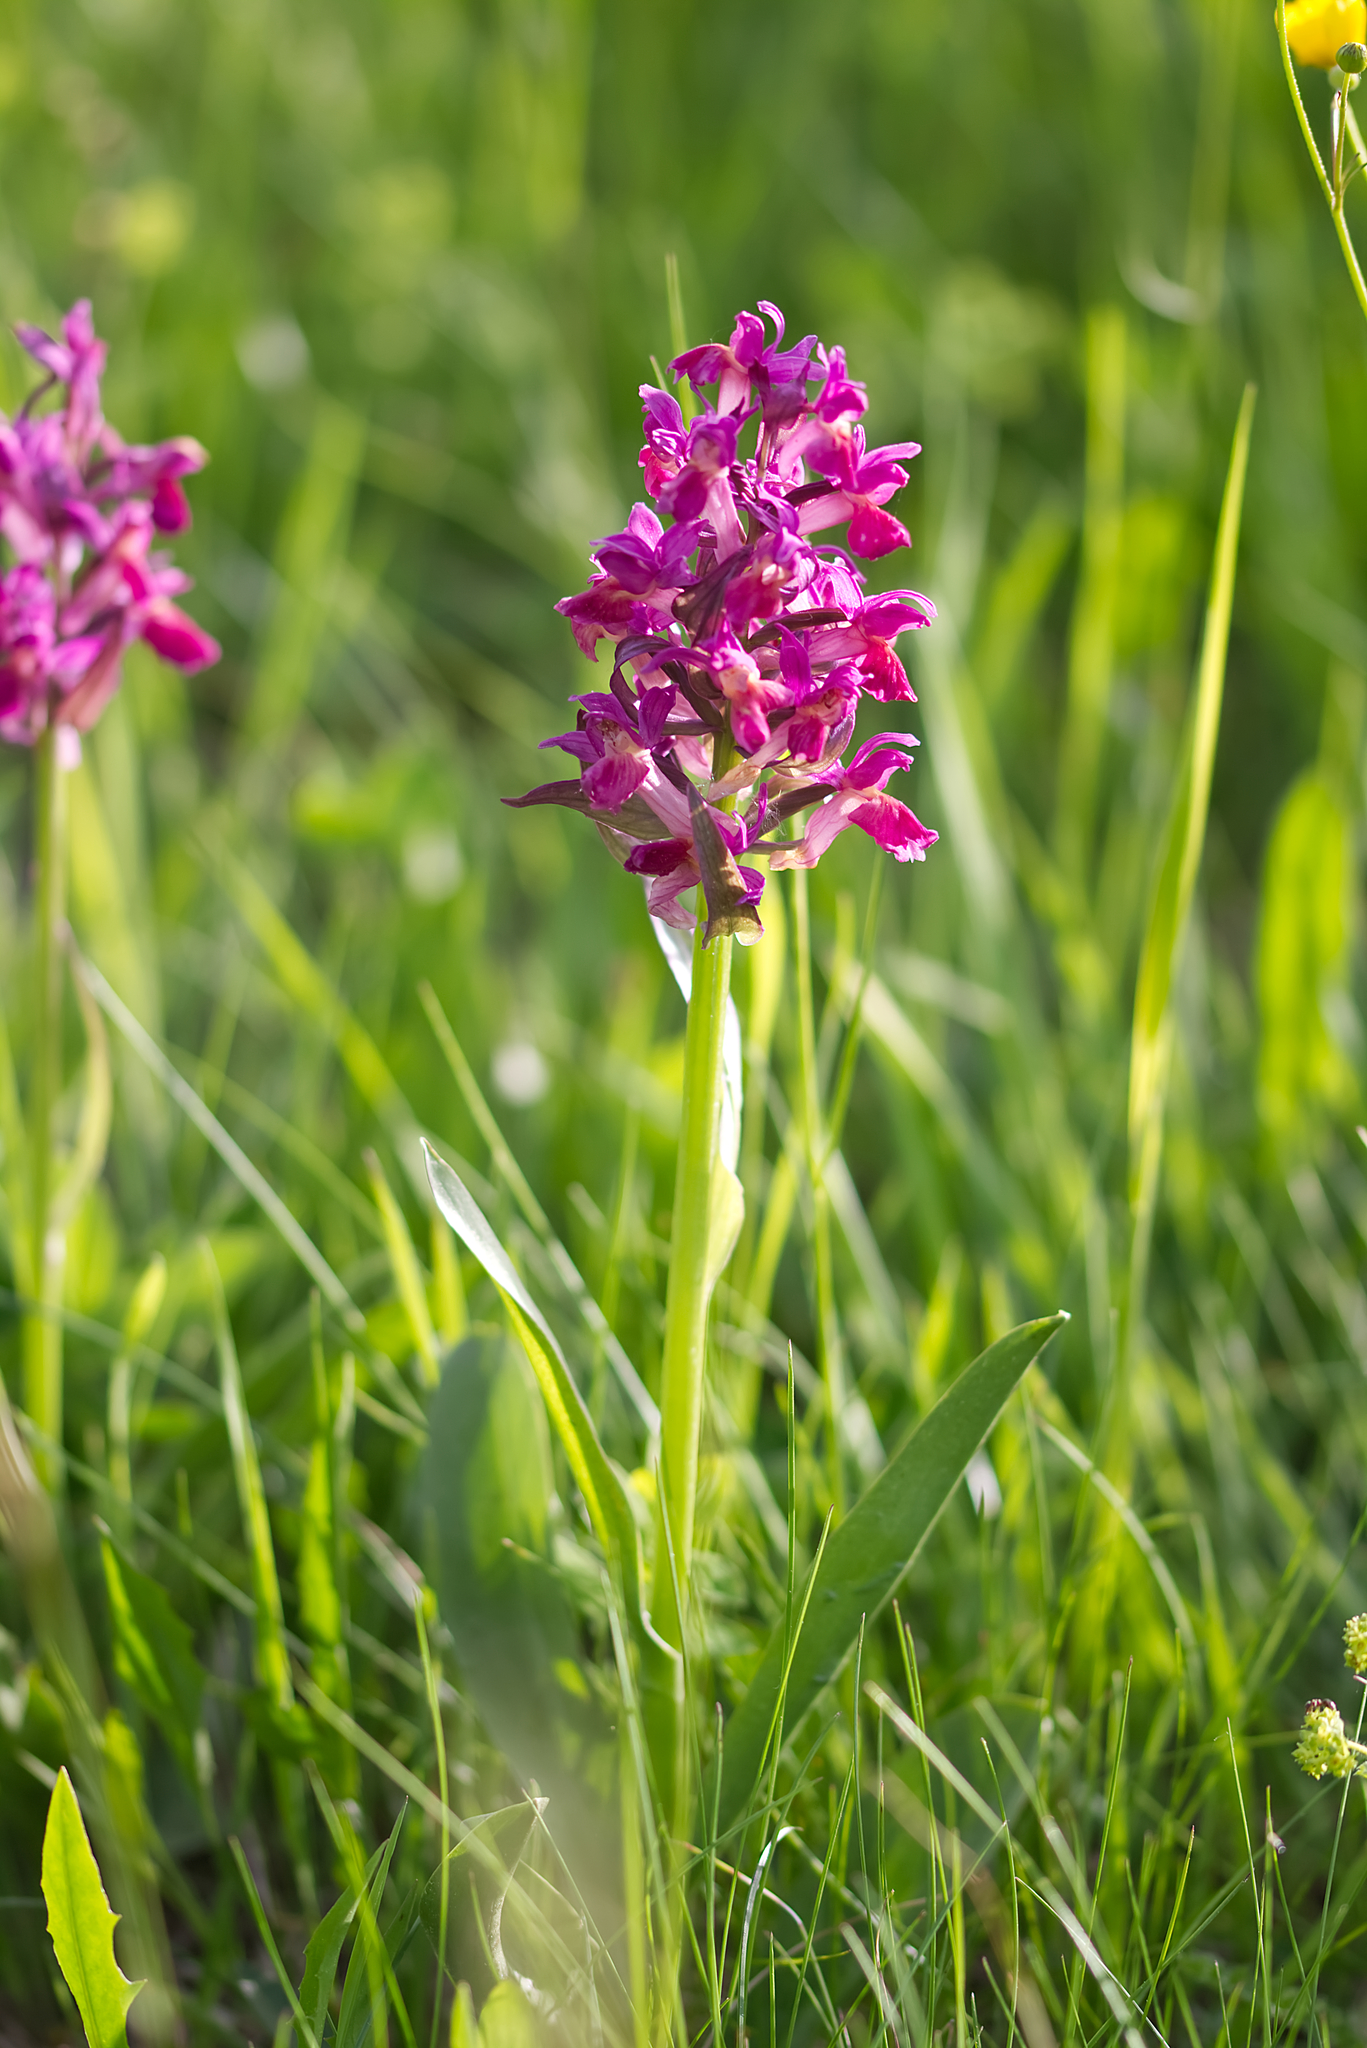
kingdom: Plantae
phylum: Tracheophyta
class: Liliopsida
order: Asparagales
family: Orchidaceae
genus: Dactylorhiza
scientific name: Dactylorhiza sambucina
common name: Elder-flowered orchid
